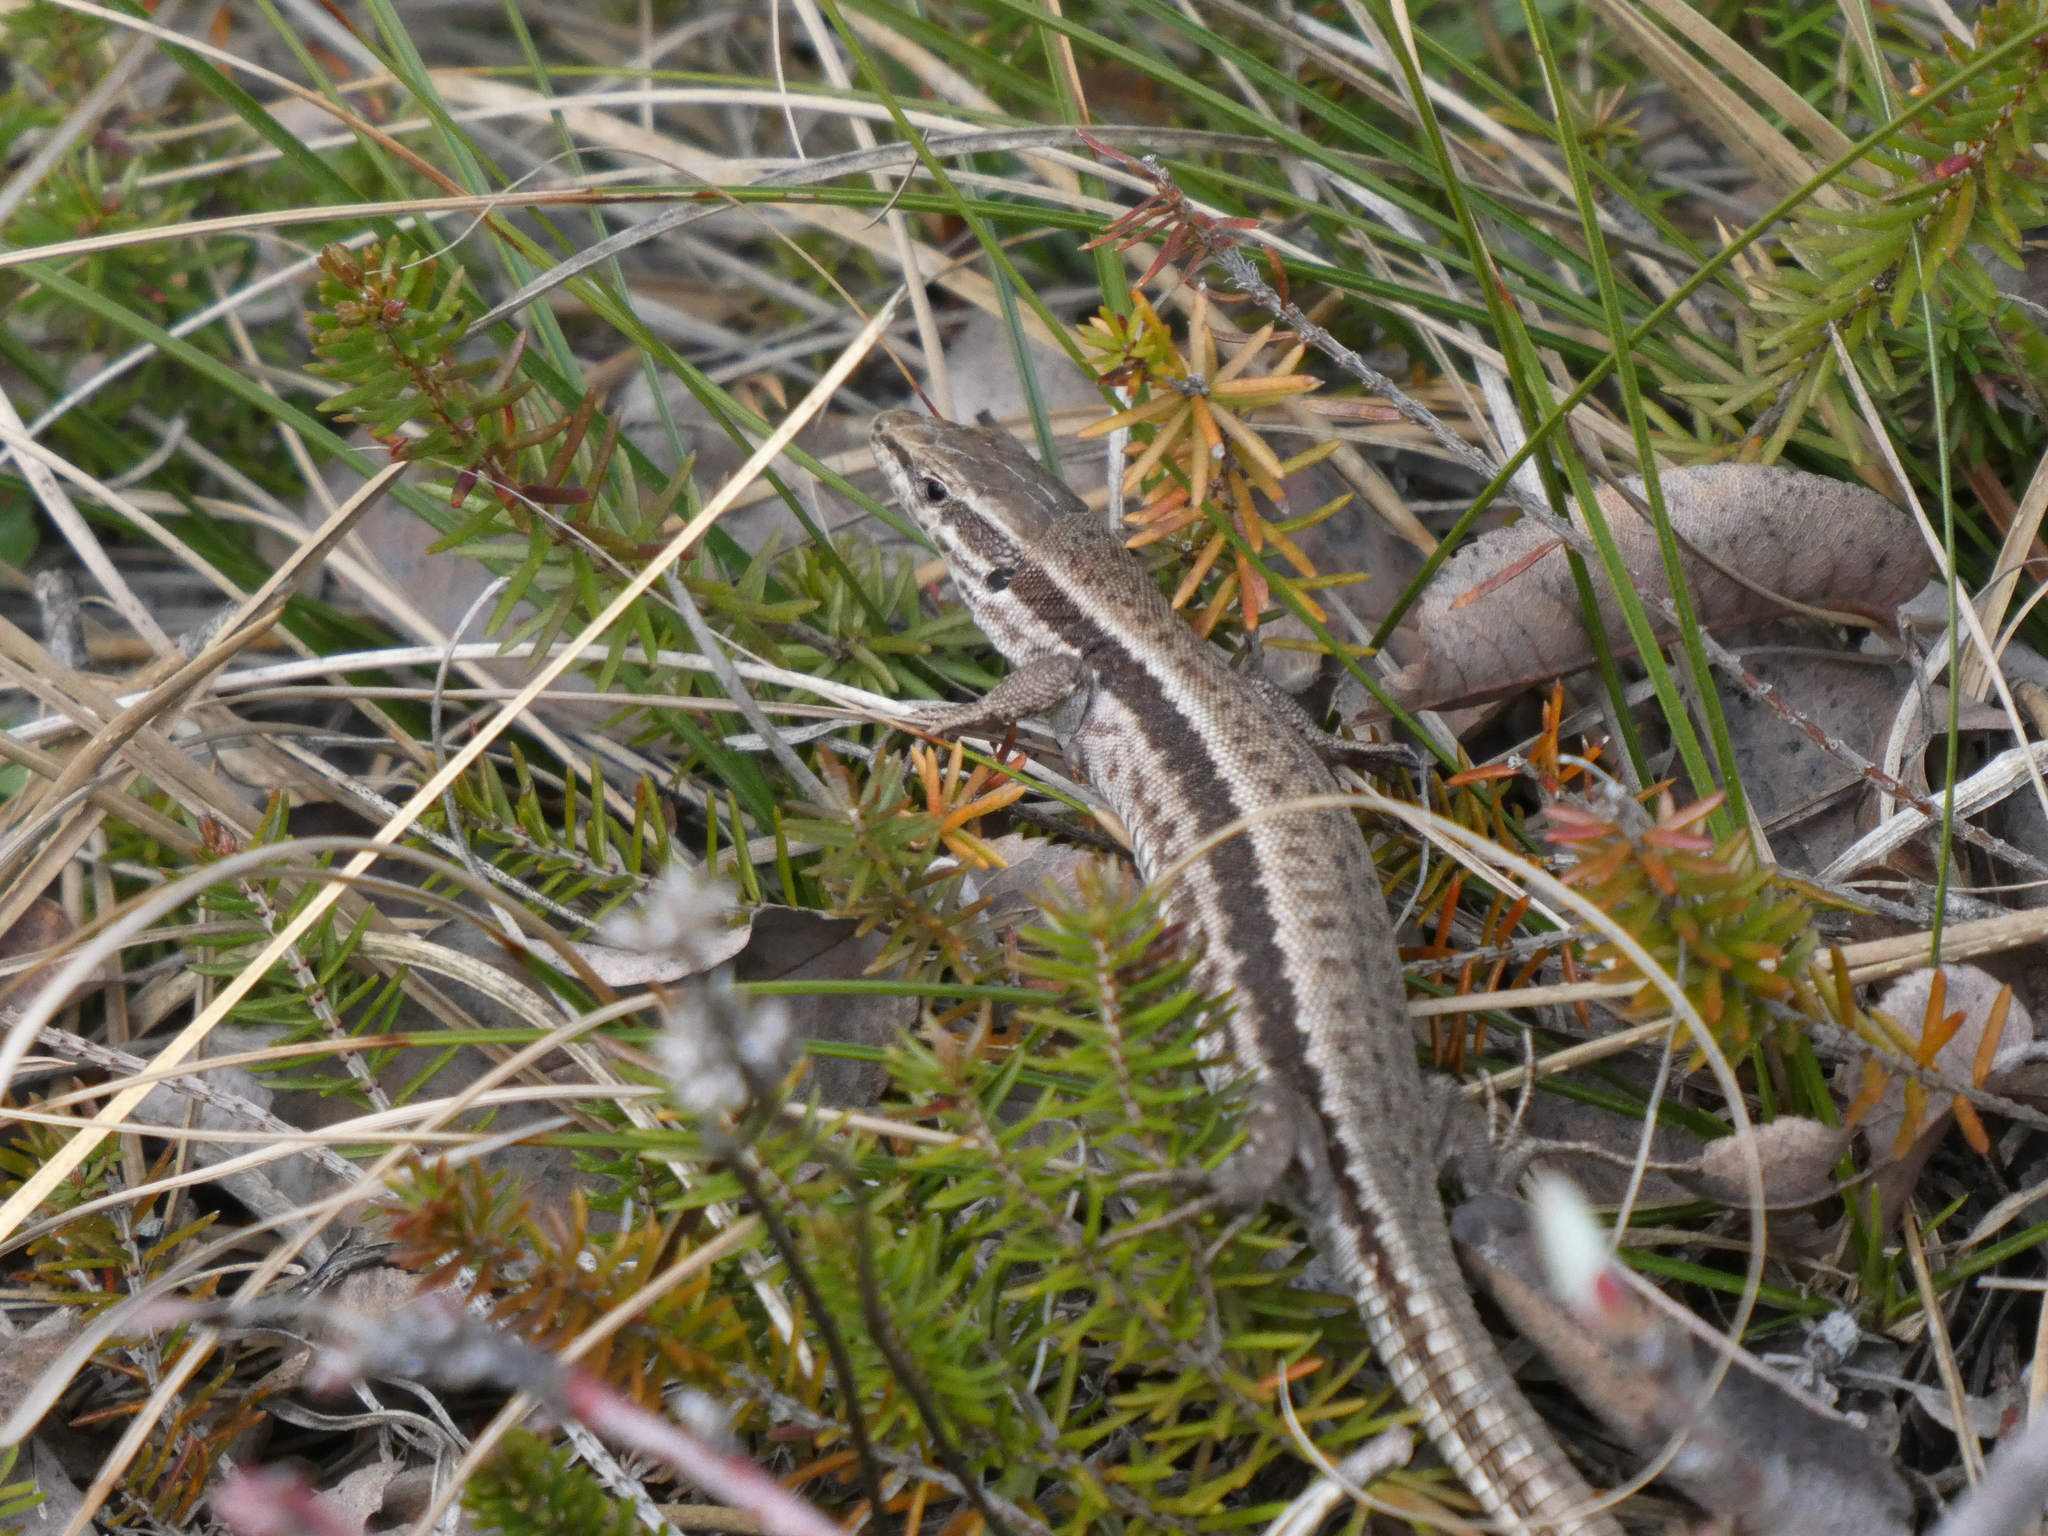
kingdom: Animalia
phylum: Chordata
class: Squamata
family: Lacertidae
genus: Podarcis
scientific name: Podarcis muralis
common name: Common wall lizard
